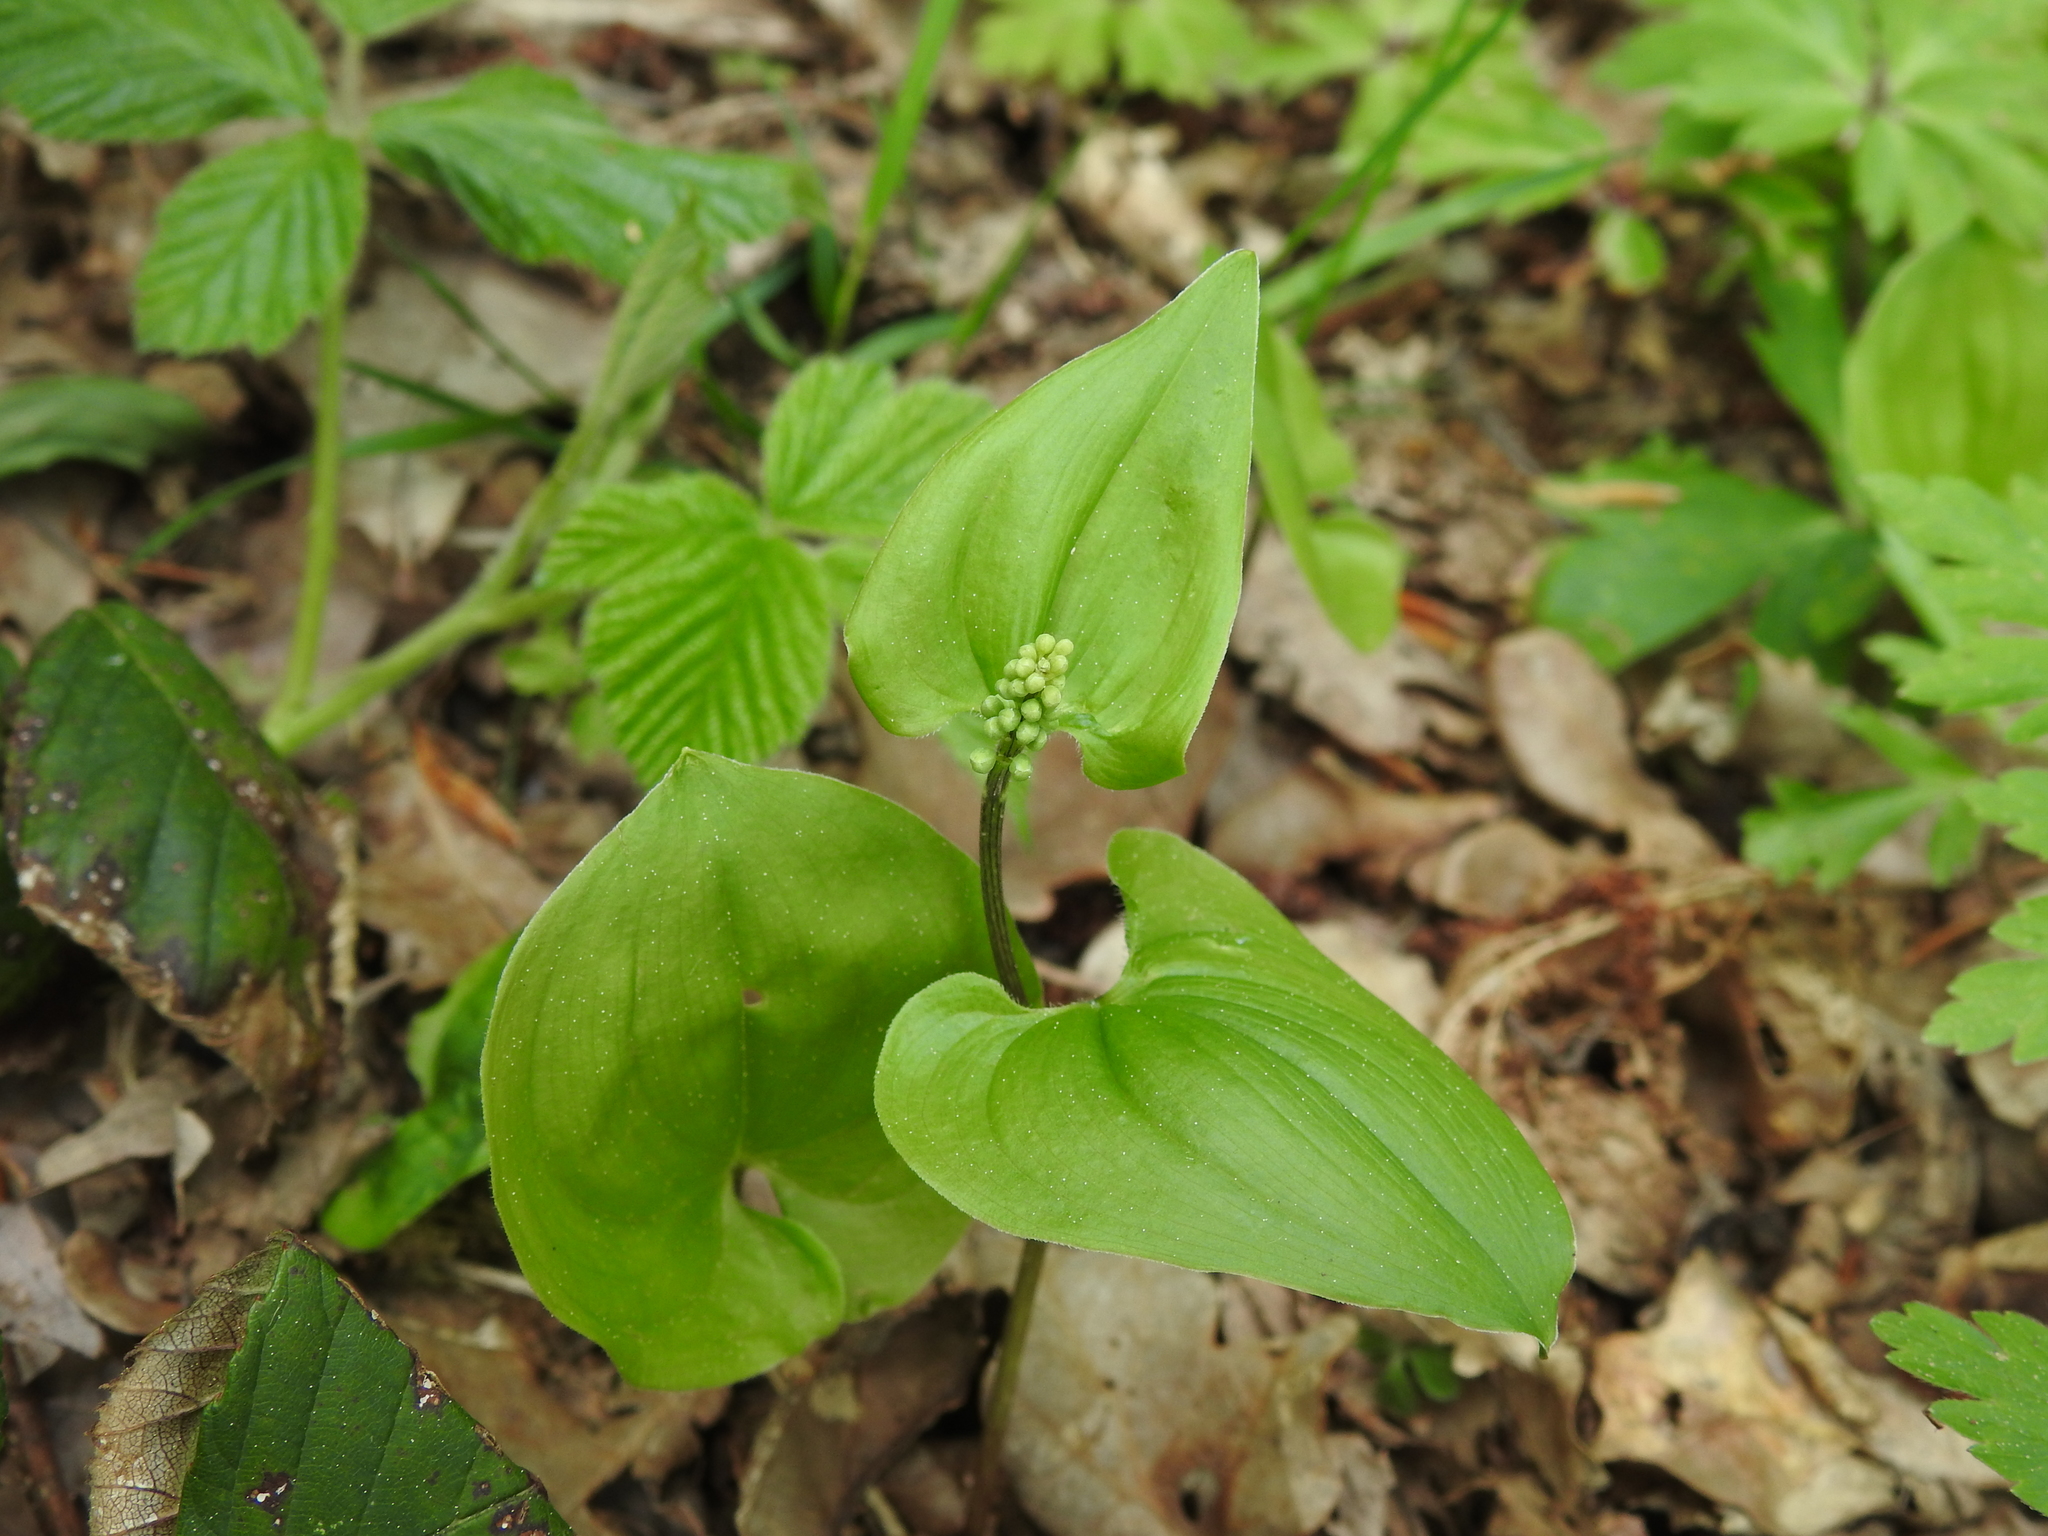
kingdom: Plantae
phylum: Tracheophyta
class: Liliopsida
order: Asparagales
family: Asparagaceae
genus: Maianthemum
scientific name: Maianthemum bifolium
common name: May lily
